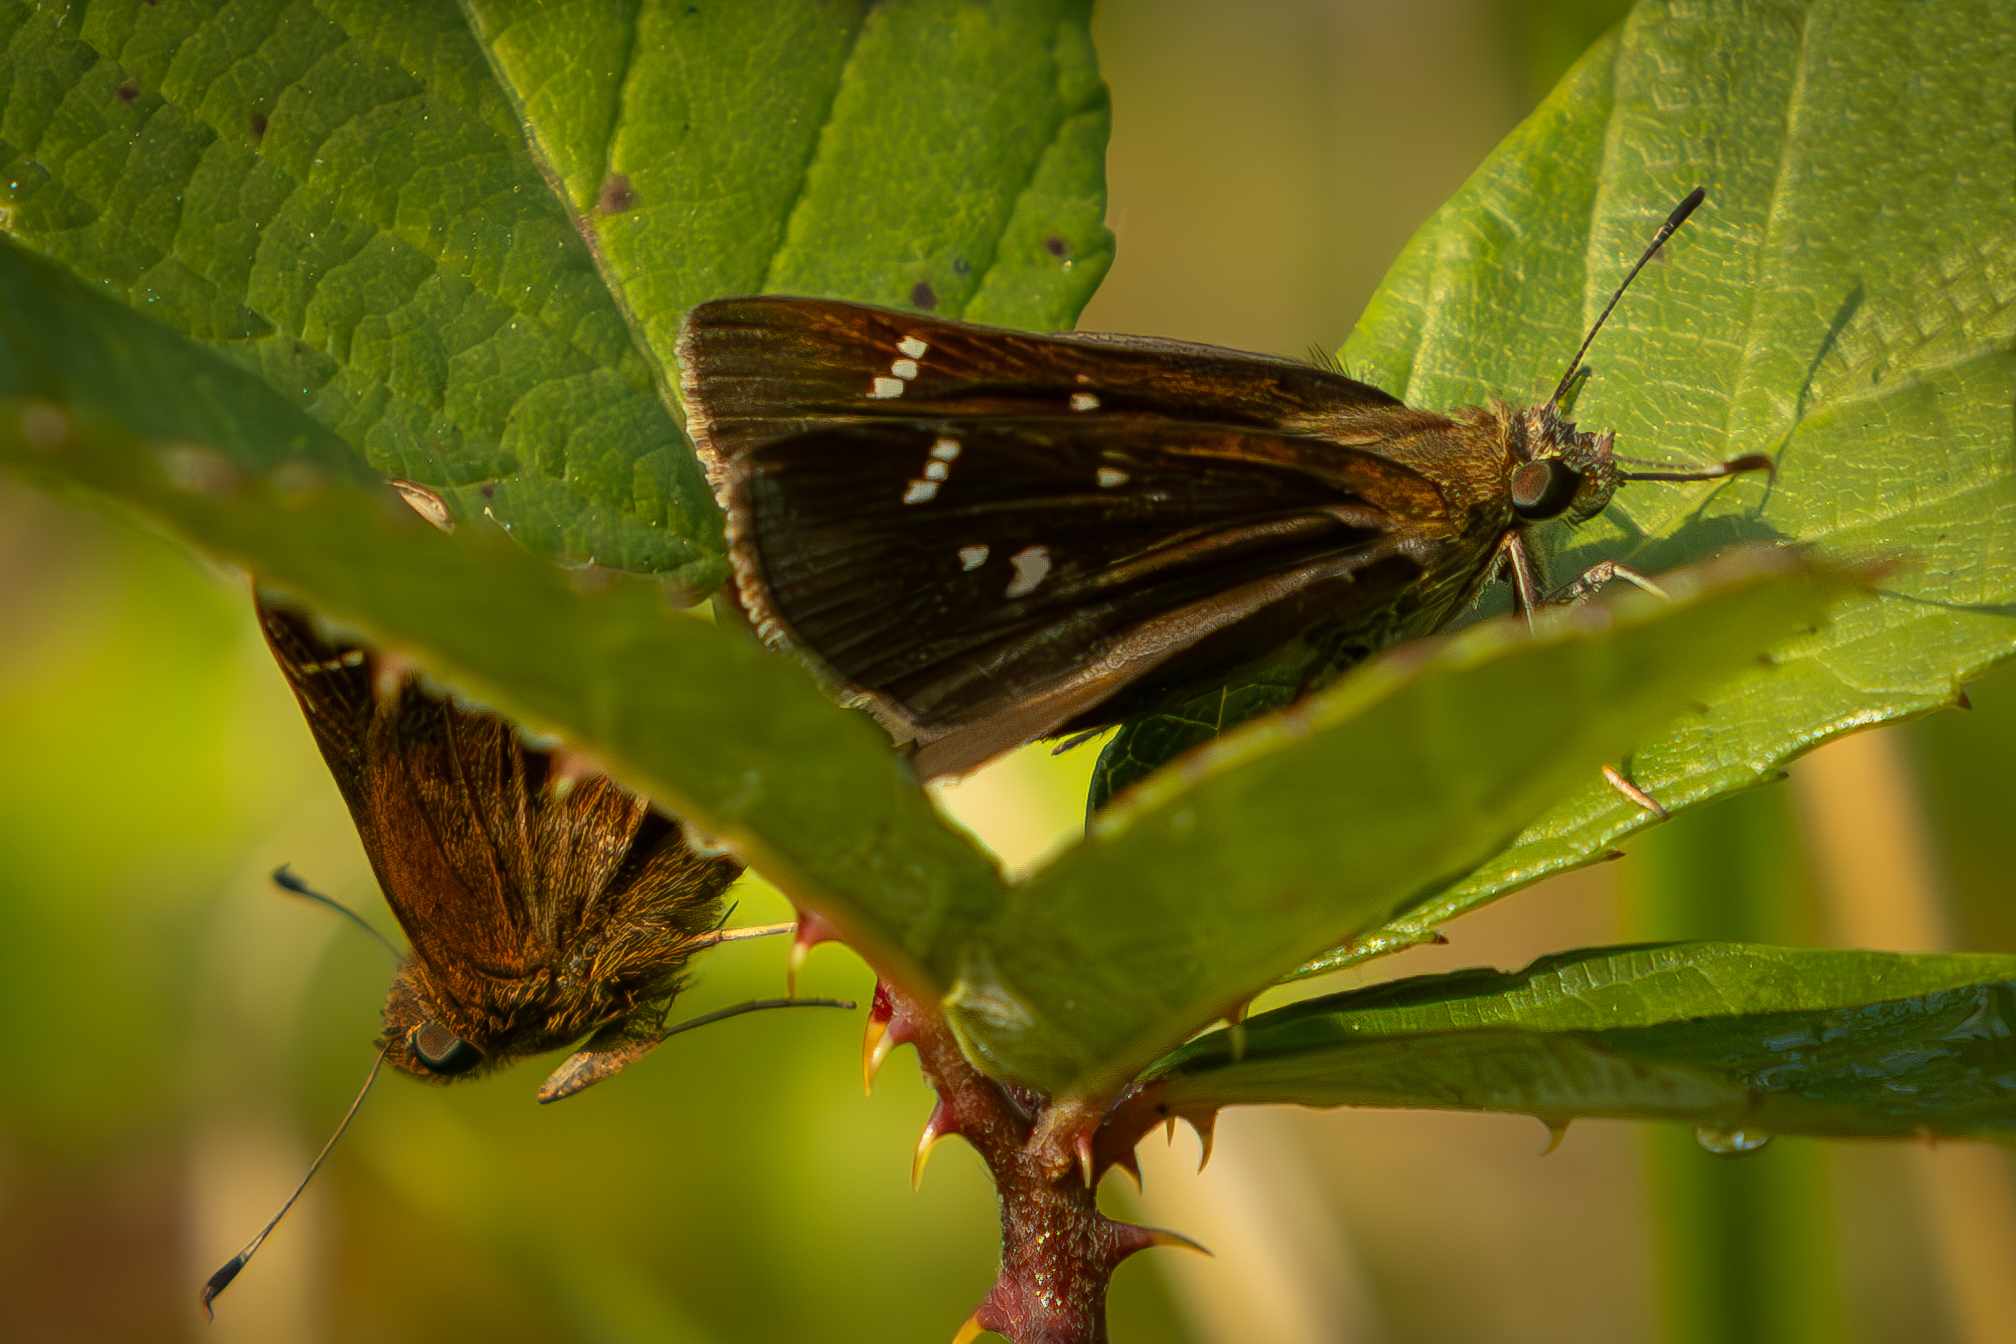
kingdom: Animalia
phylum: Arthropoda
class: Insecta
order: Lepidoptera
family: Hesperiidae
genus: Lerema
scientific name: Lerema accius
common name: Clouded skipper
